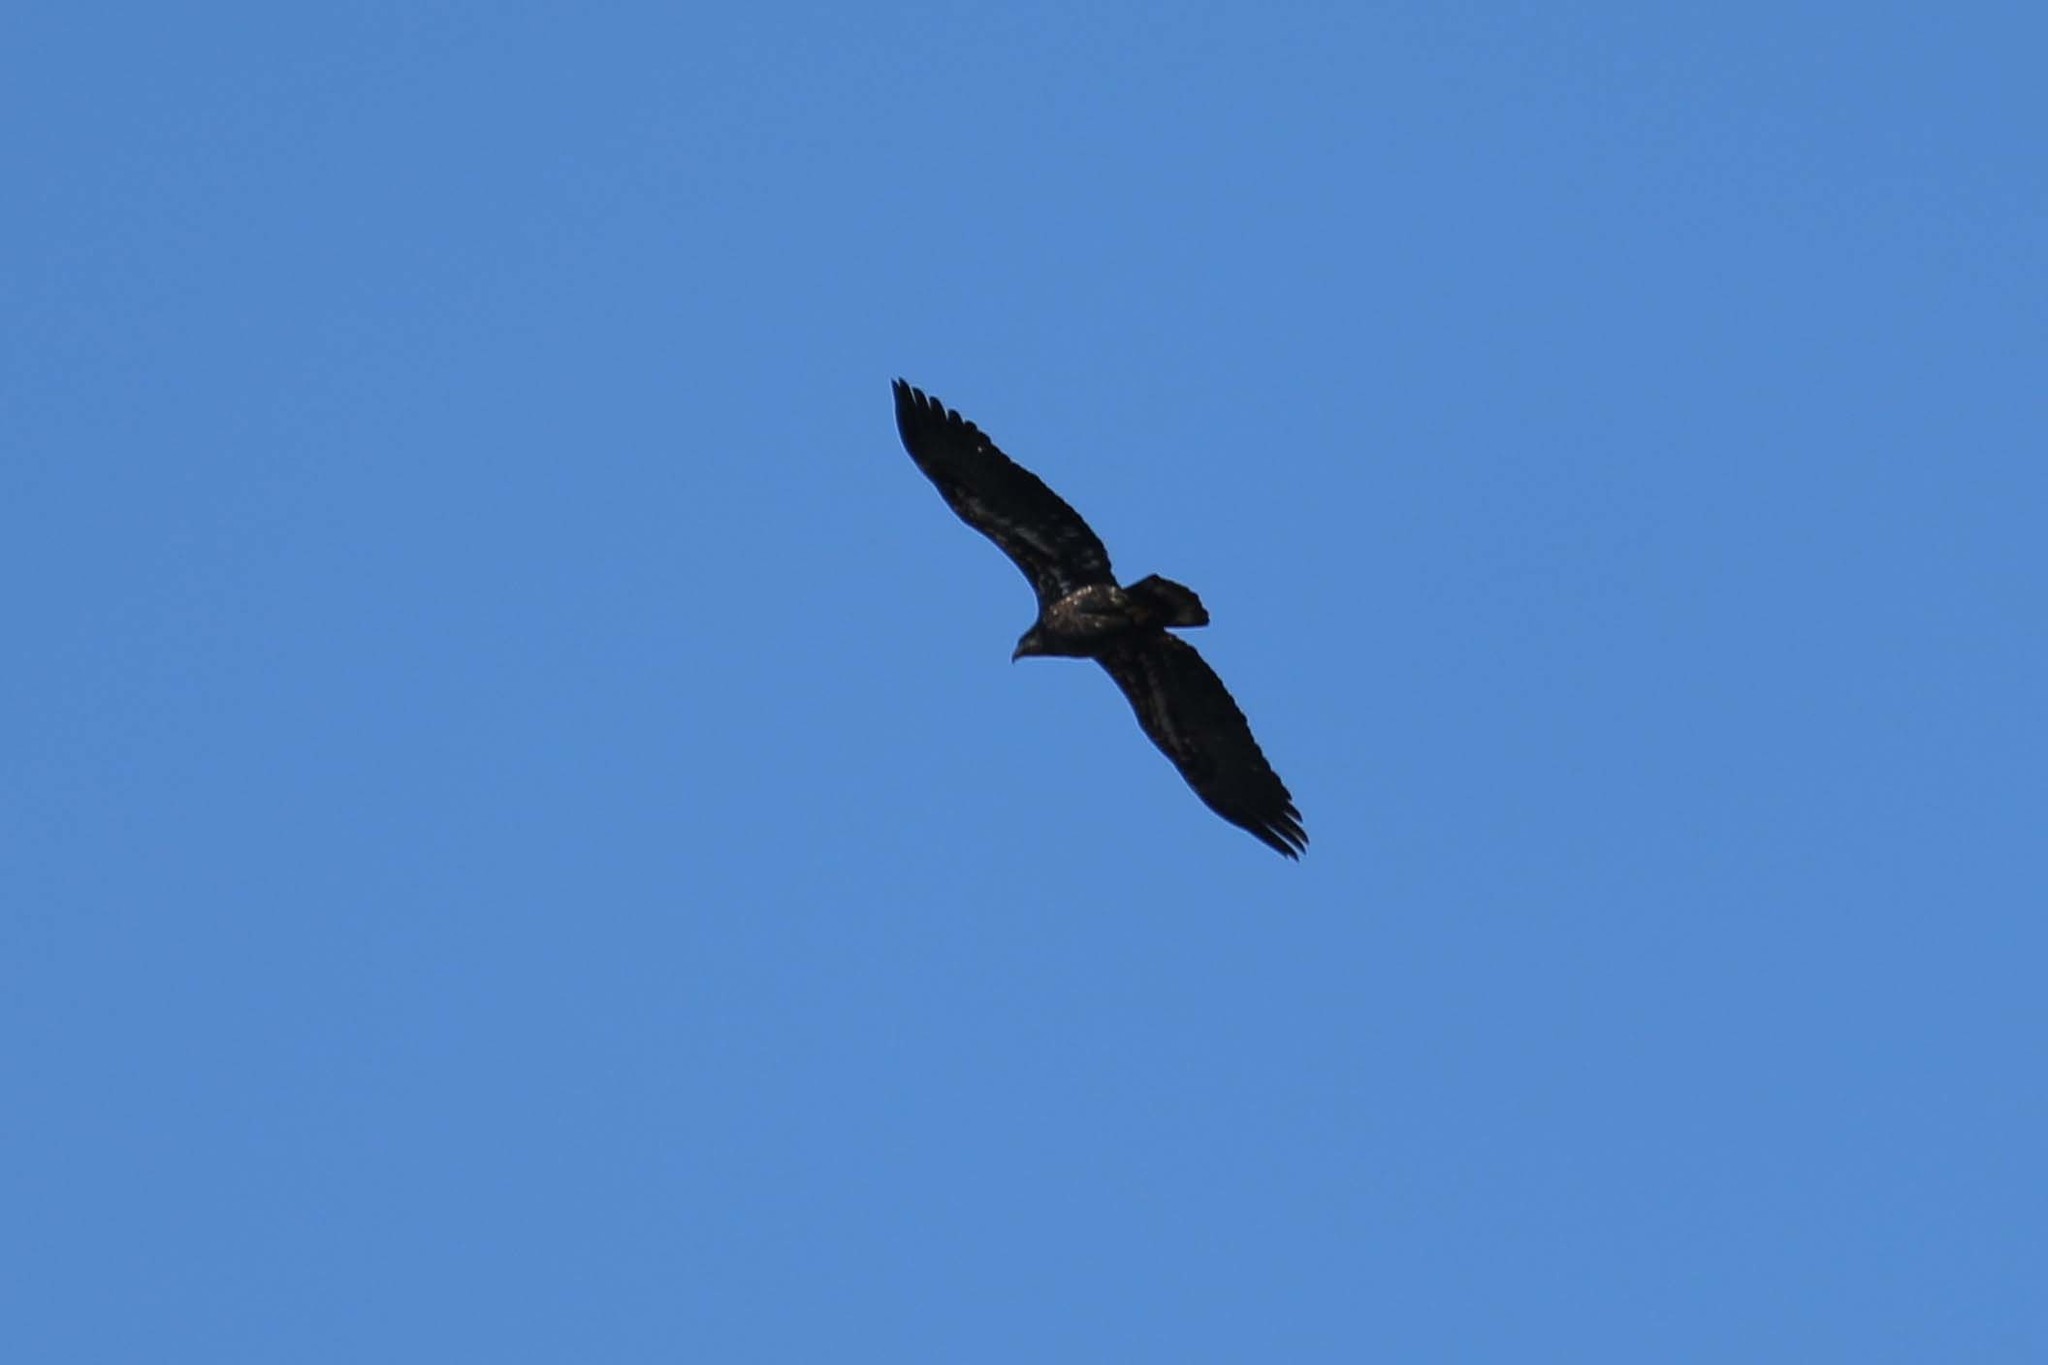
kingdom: Animalia
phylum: Chordata
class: Aves
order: Accipitriformes
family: Accipitridae
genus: Haliaeetus
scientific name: Haliaeetus leucocephalus
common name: Bald eagle
